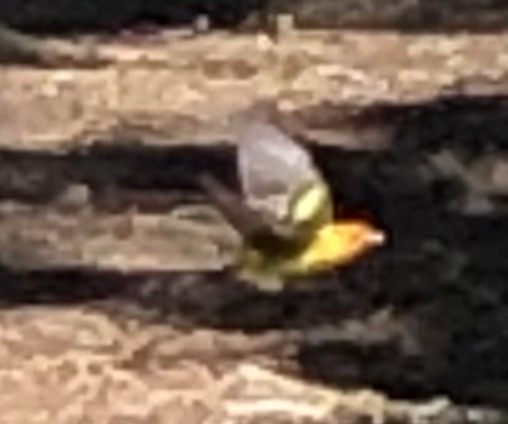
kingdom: Animalia
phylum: Chordata
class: Aves
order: Passeriformes
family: Cardinalidae
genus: Piranga
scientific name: Piranga ludoviciana
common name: Western tanager
